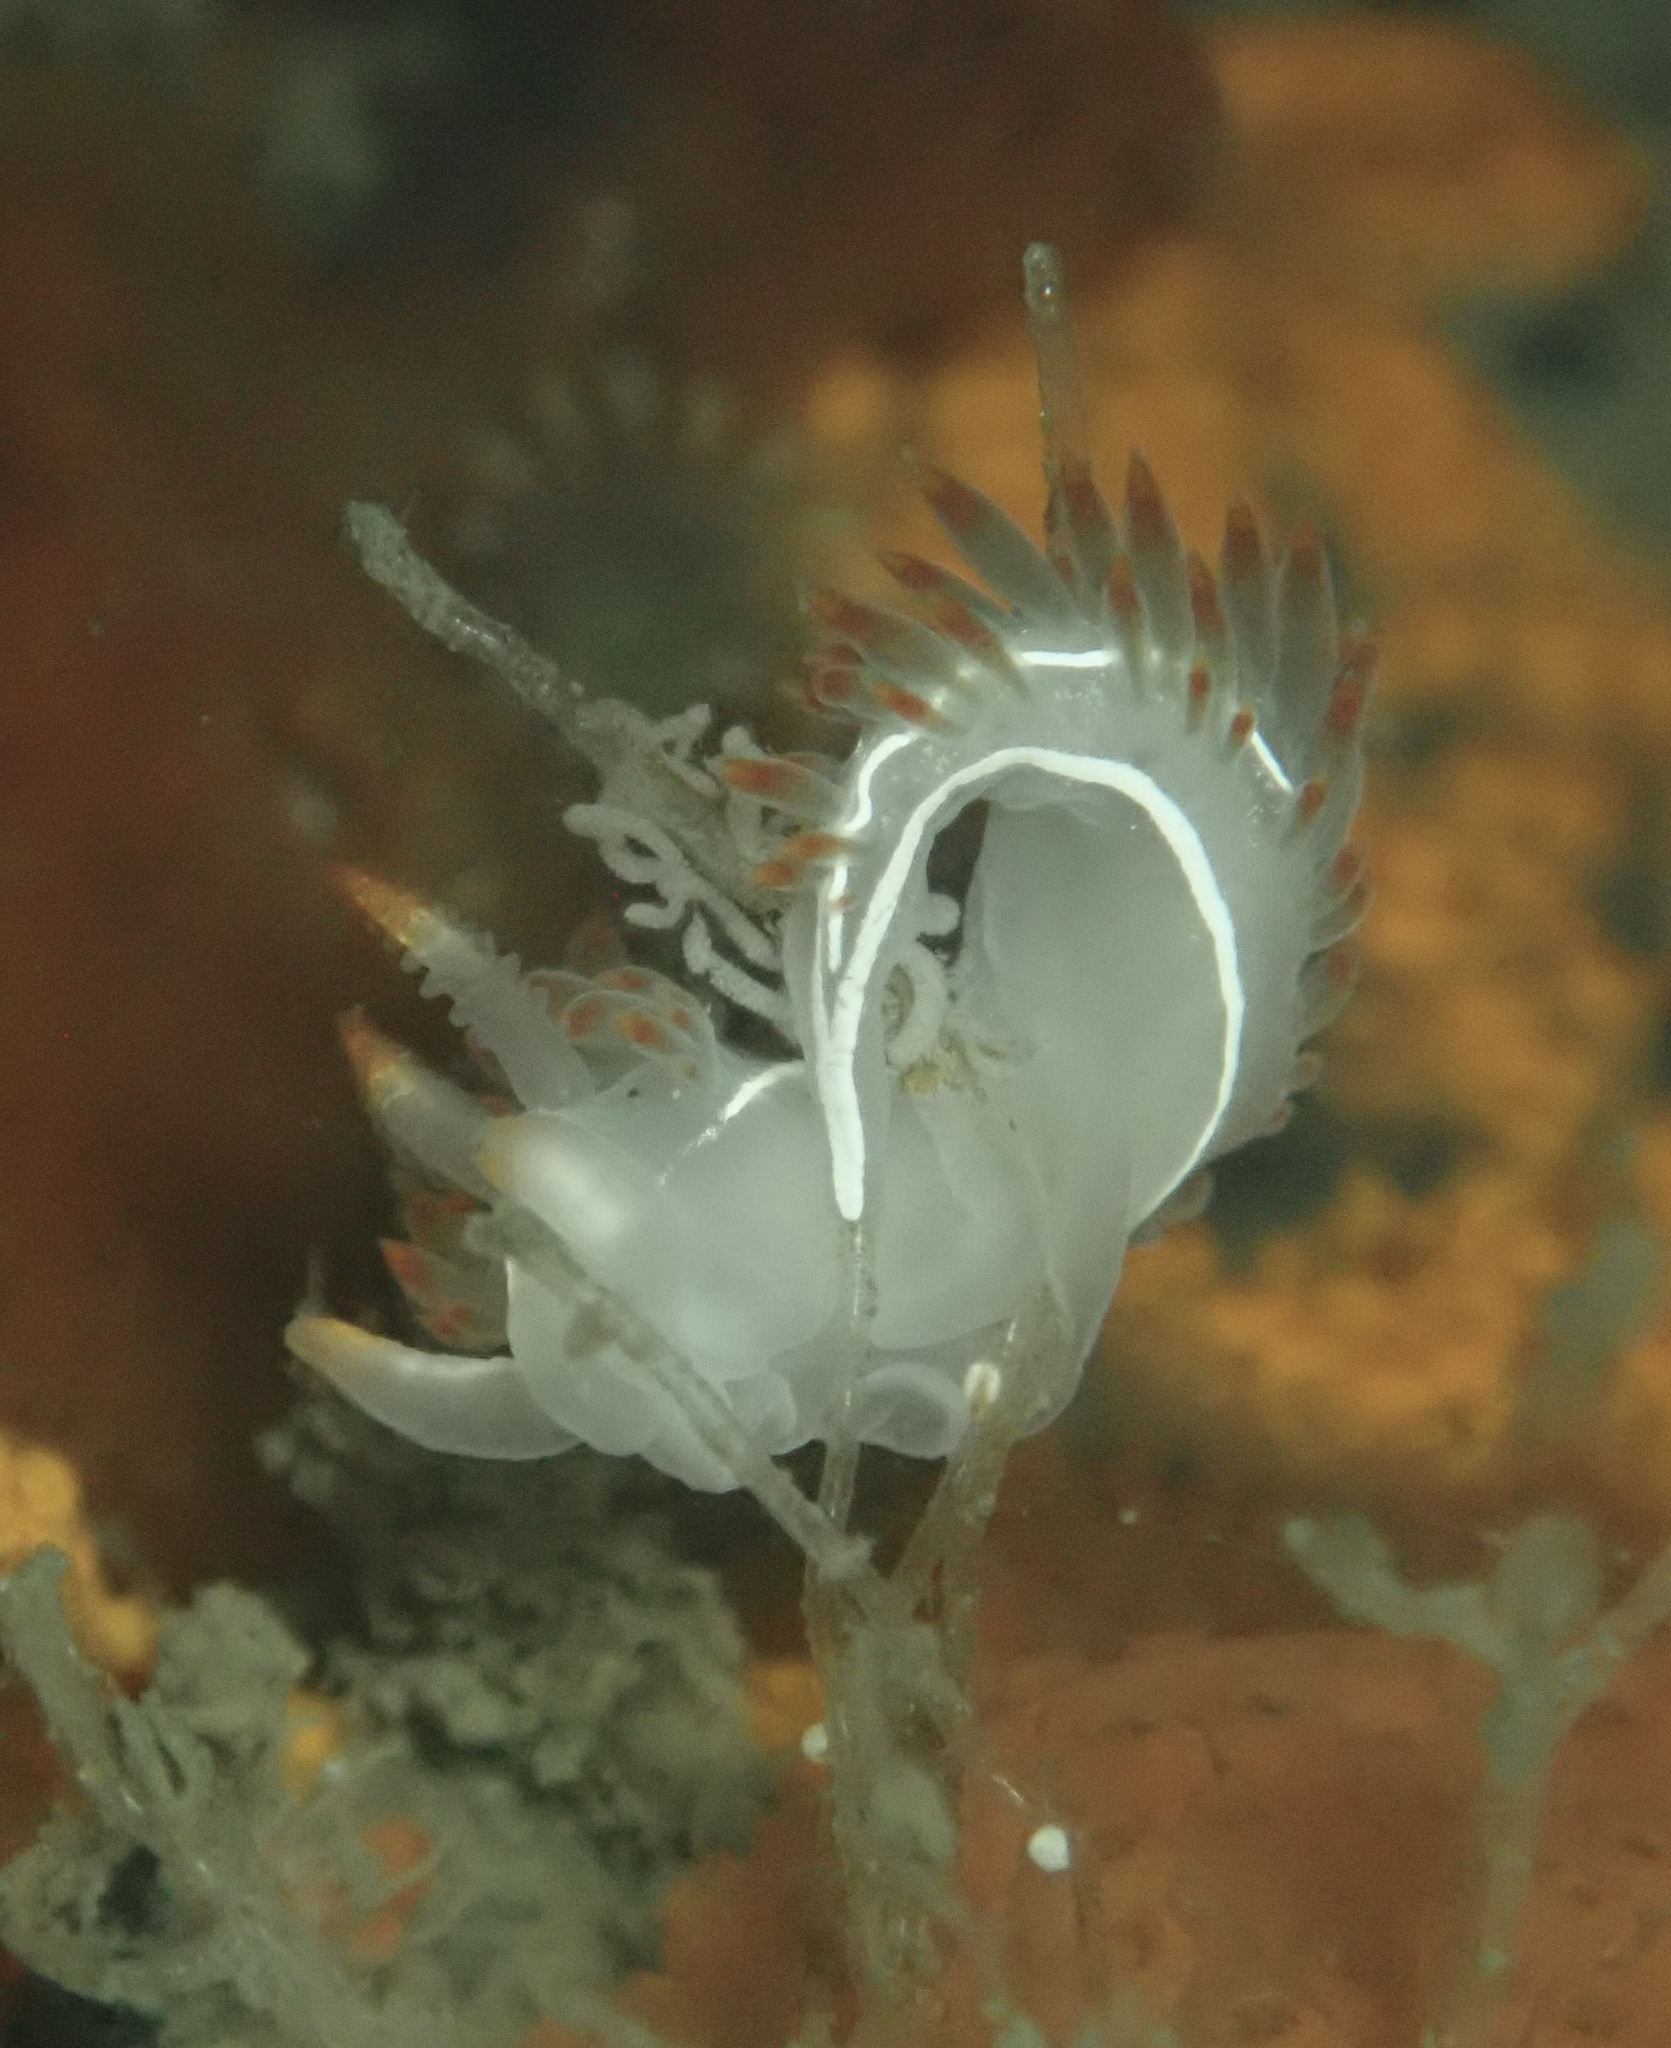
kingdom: Animalia
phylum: Mollusca
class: Gastropoda
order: Nudibranchia
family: Coryphellidae
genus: Coryphella
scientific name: Coryphella trilineata
